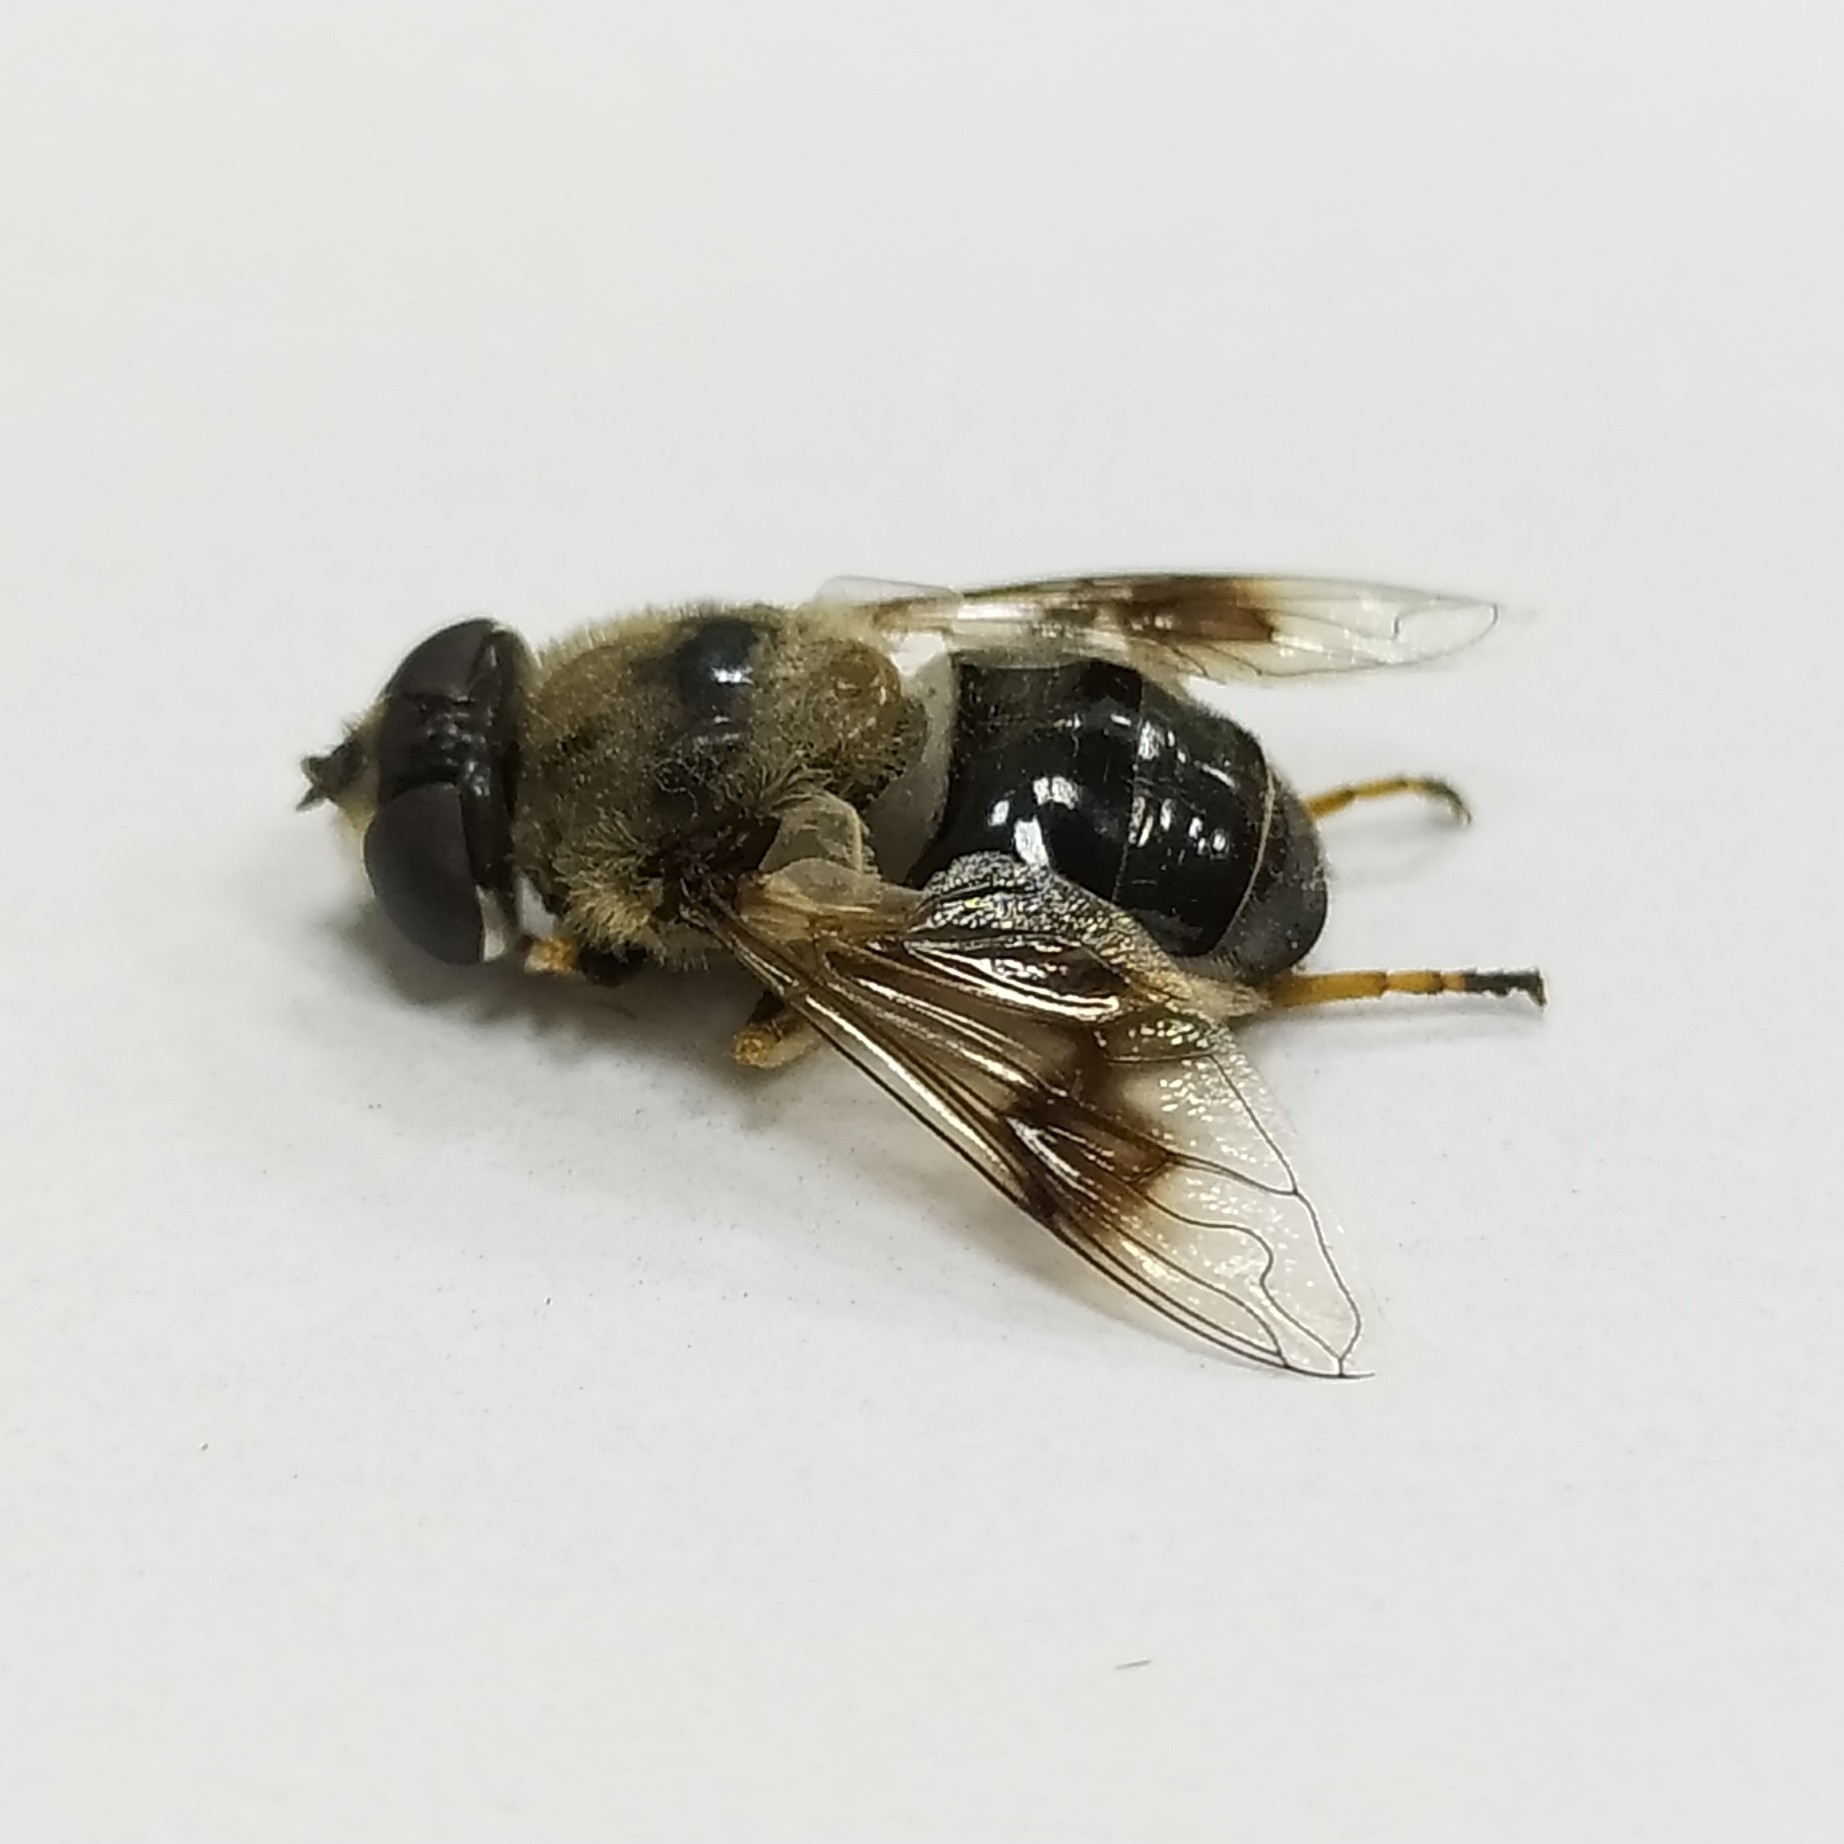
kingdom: Animalia
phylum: Arthropoda
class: Insecta
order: Diptera
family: Syrphidae
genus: Eristalis
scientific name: Eristalis alpina
